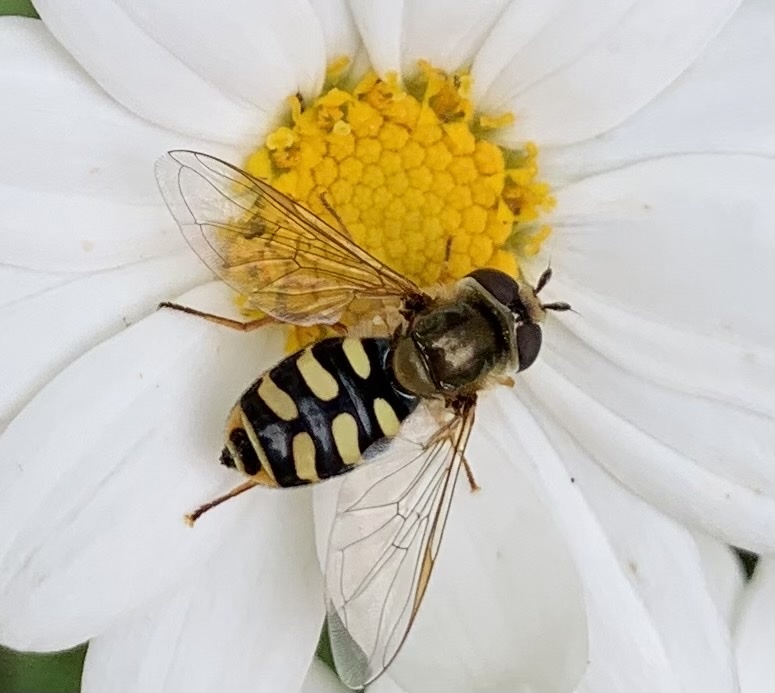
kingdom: Animalia
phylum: Arthropoda
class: Insecta
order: Diptera
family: Syrphidae
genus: Eupeodes
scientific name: Eupeodes corollae
